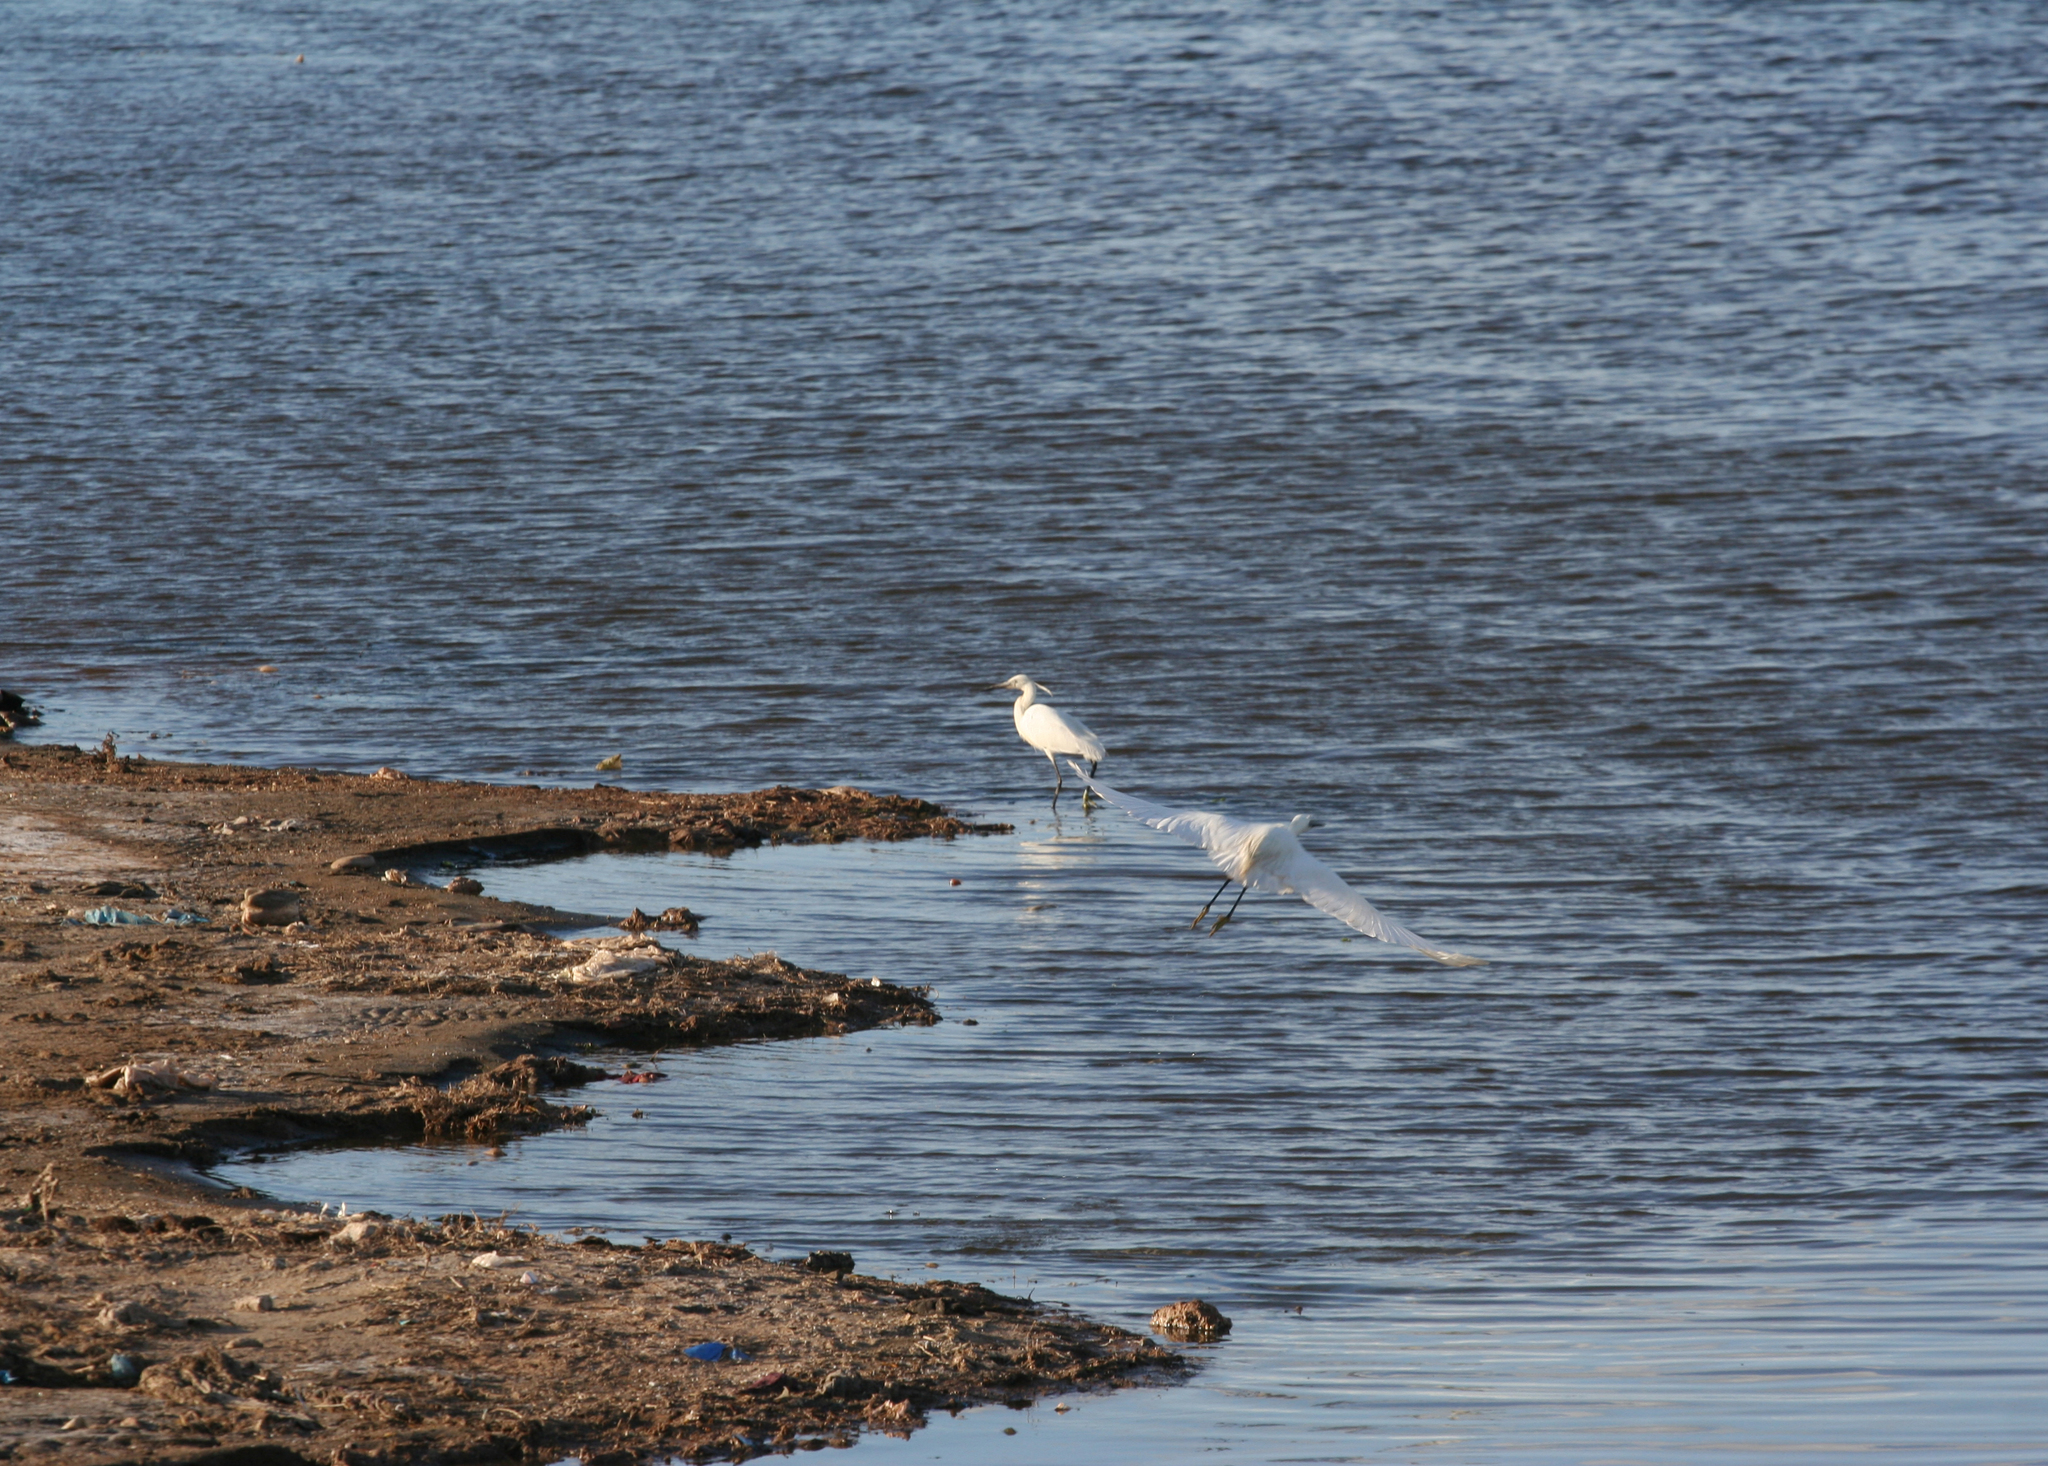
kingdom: Animalia
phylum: Chordata
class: Aves
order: Pelecaniformes
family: Ardeidae
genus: Egretta
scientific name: Egretta garzetta
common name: Little egret
